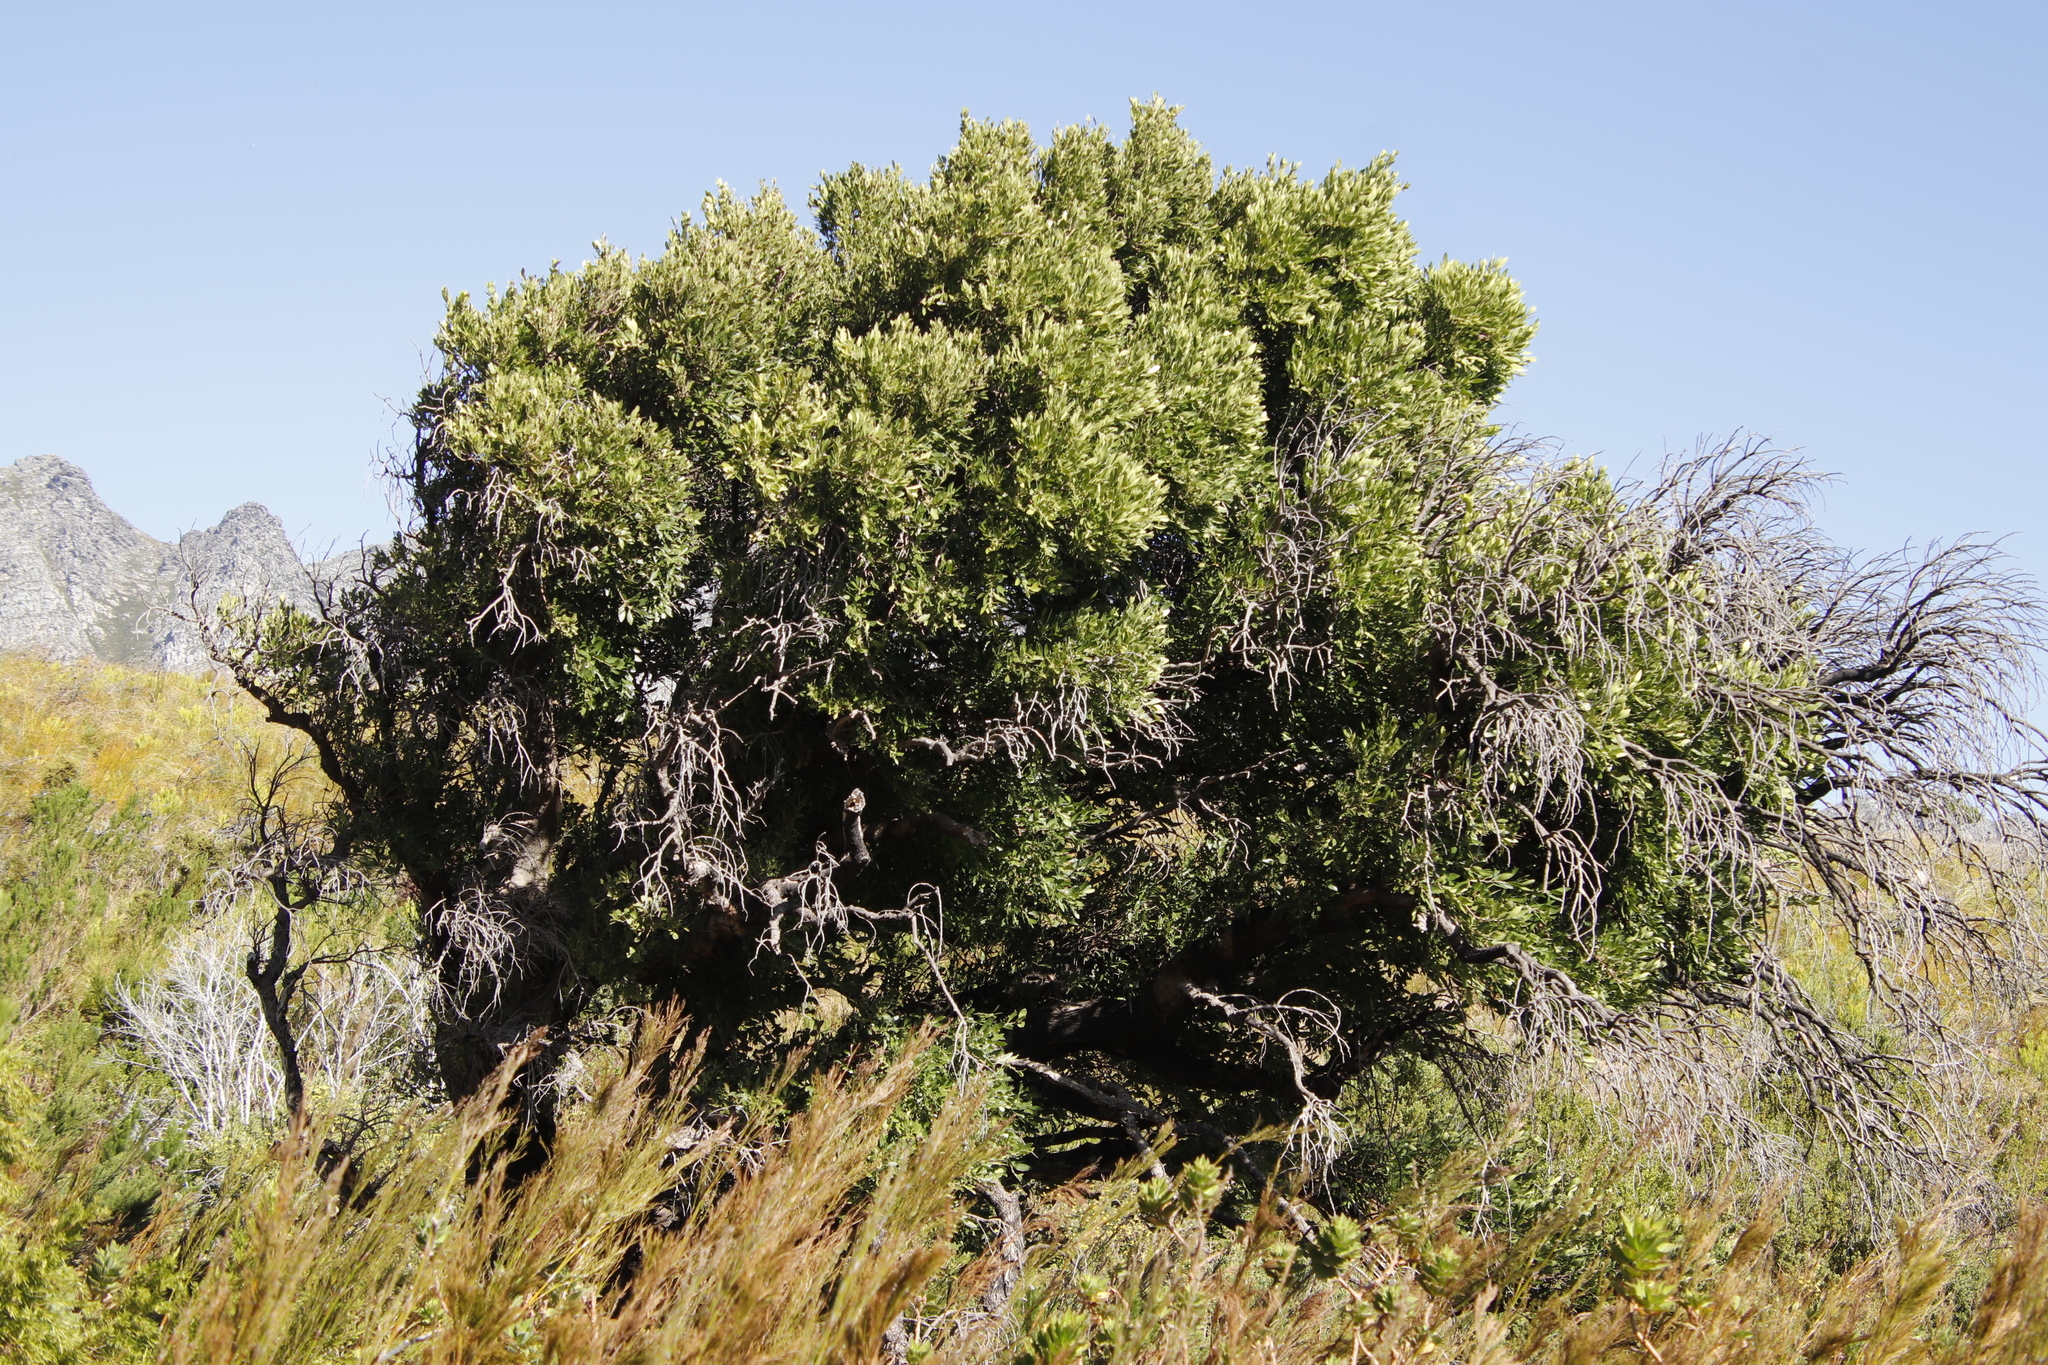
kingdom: Plantae
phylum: Tracheophyta
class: Magnoliopsida
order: Lamiales
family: Oleaceae
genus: Olea
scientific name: Olea capensis
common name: Black ironwood
